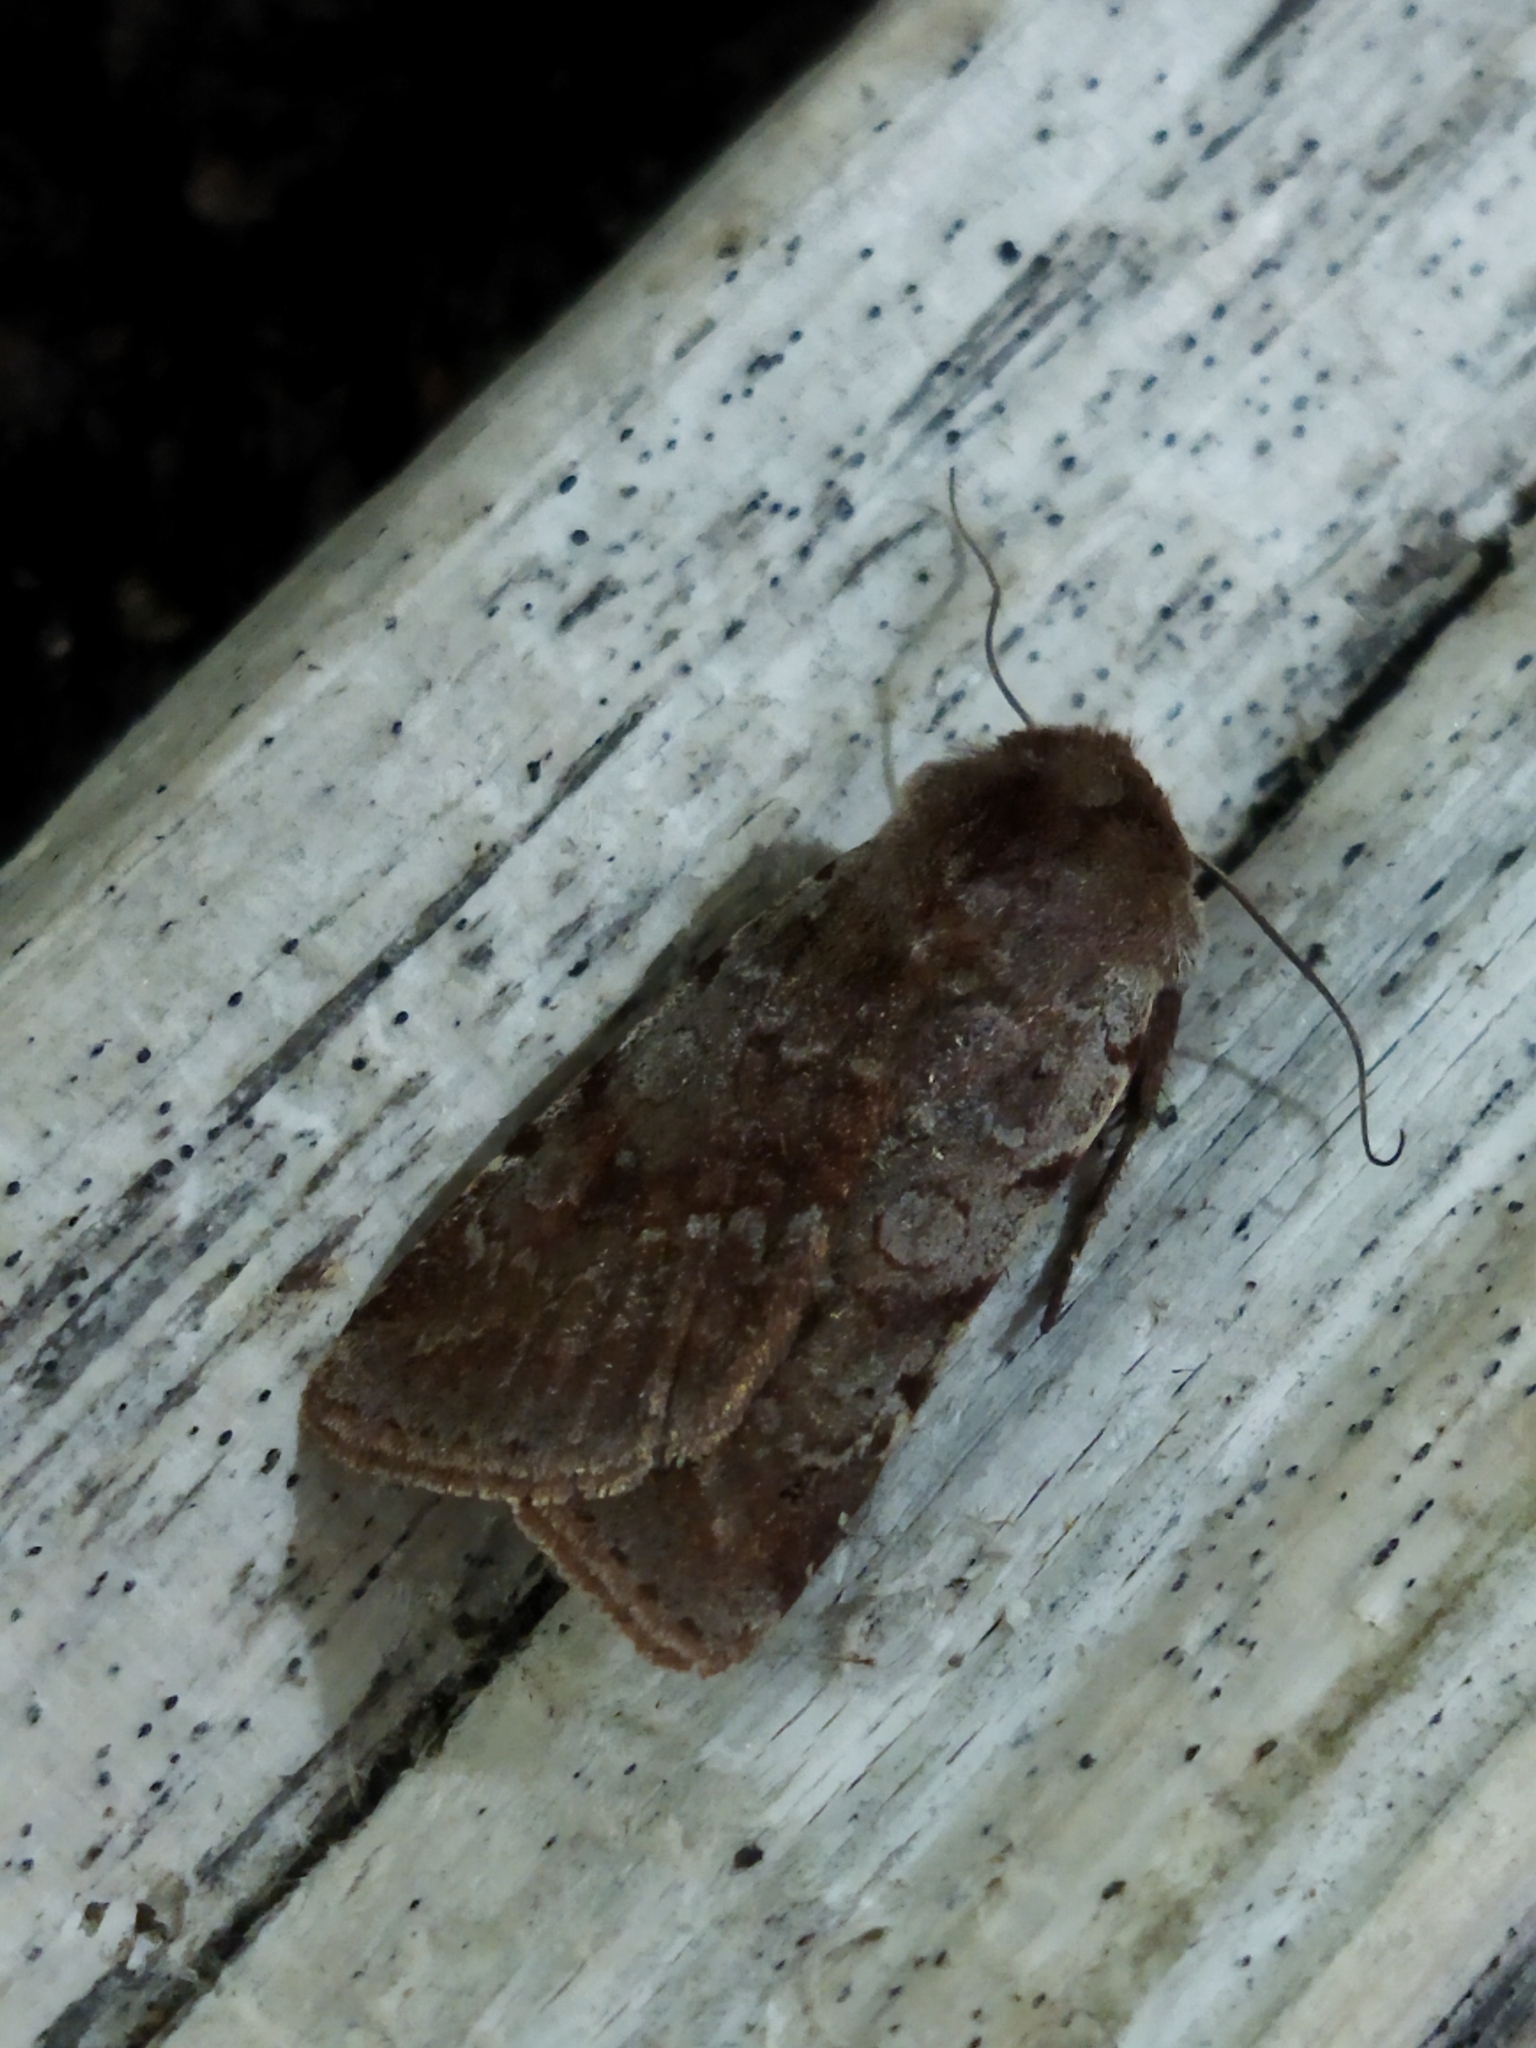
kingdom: Animalia
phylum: Arthropoda
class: Insecta
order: Lepidoptera
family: Noctuidae
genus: Cerastis
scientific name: Cerastis rubricosa
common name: Red chestnut
